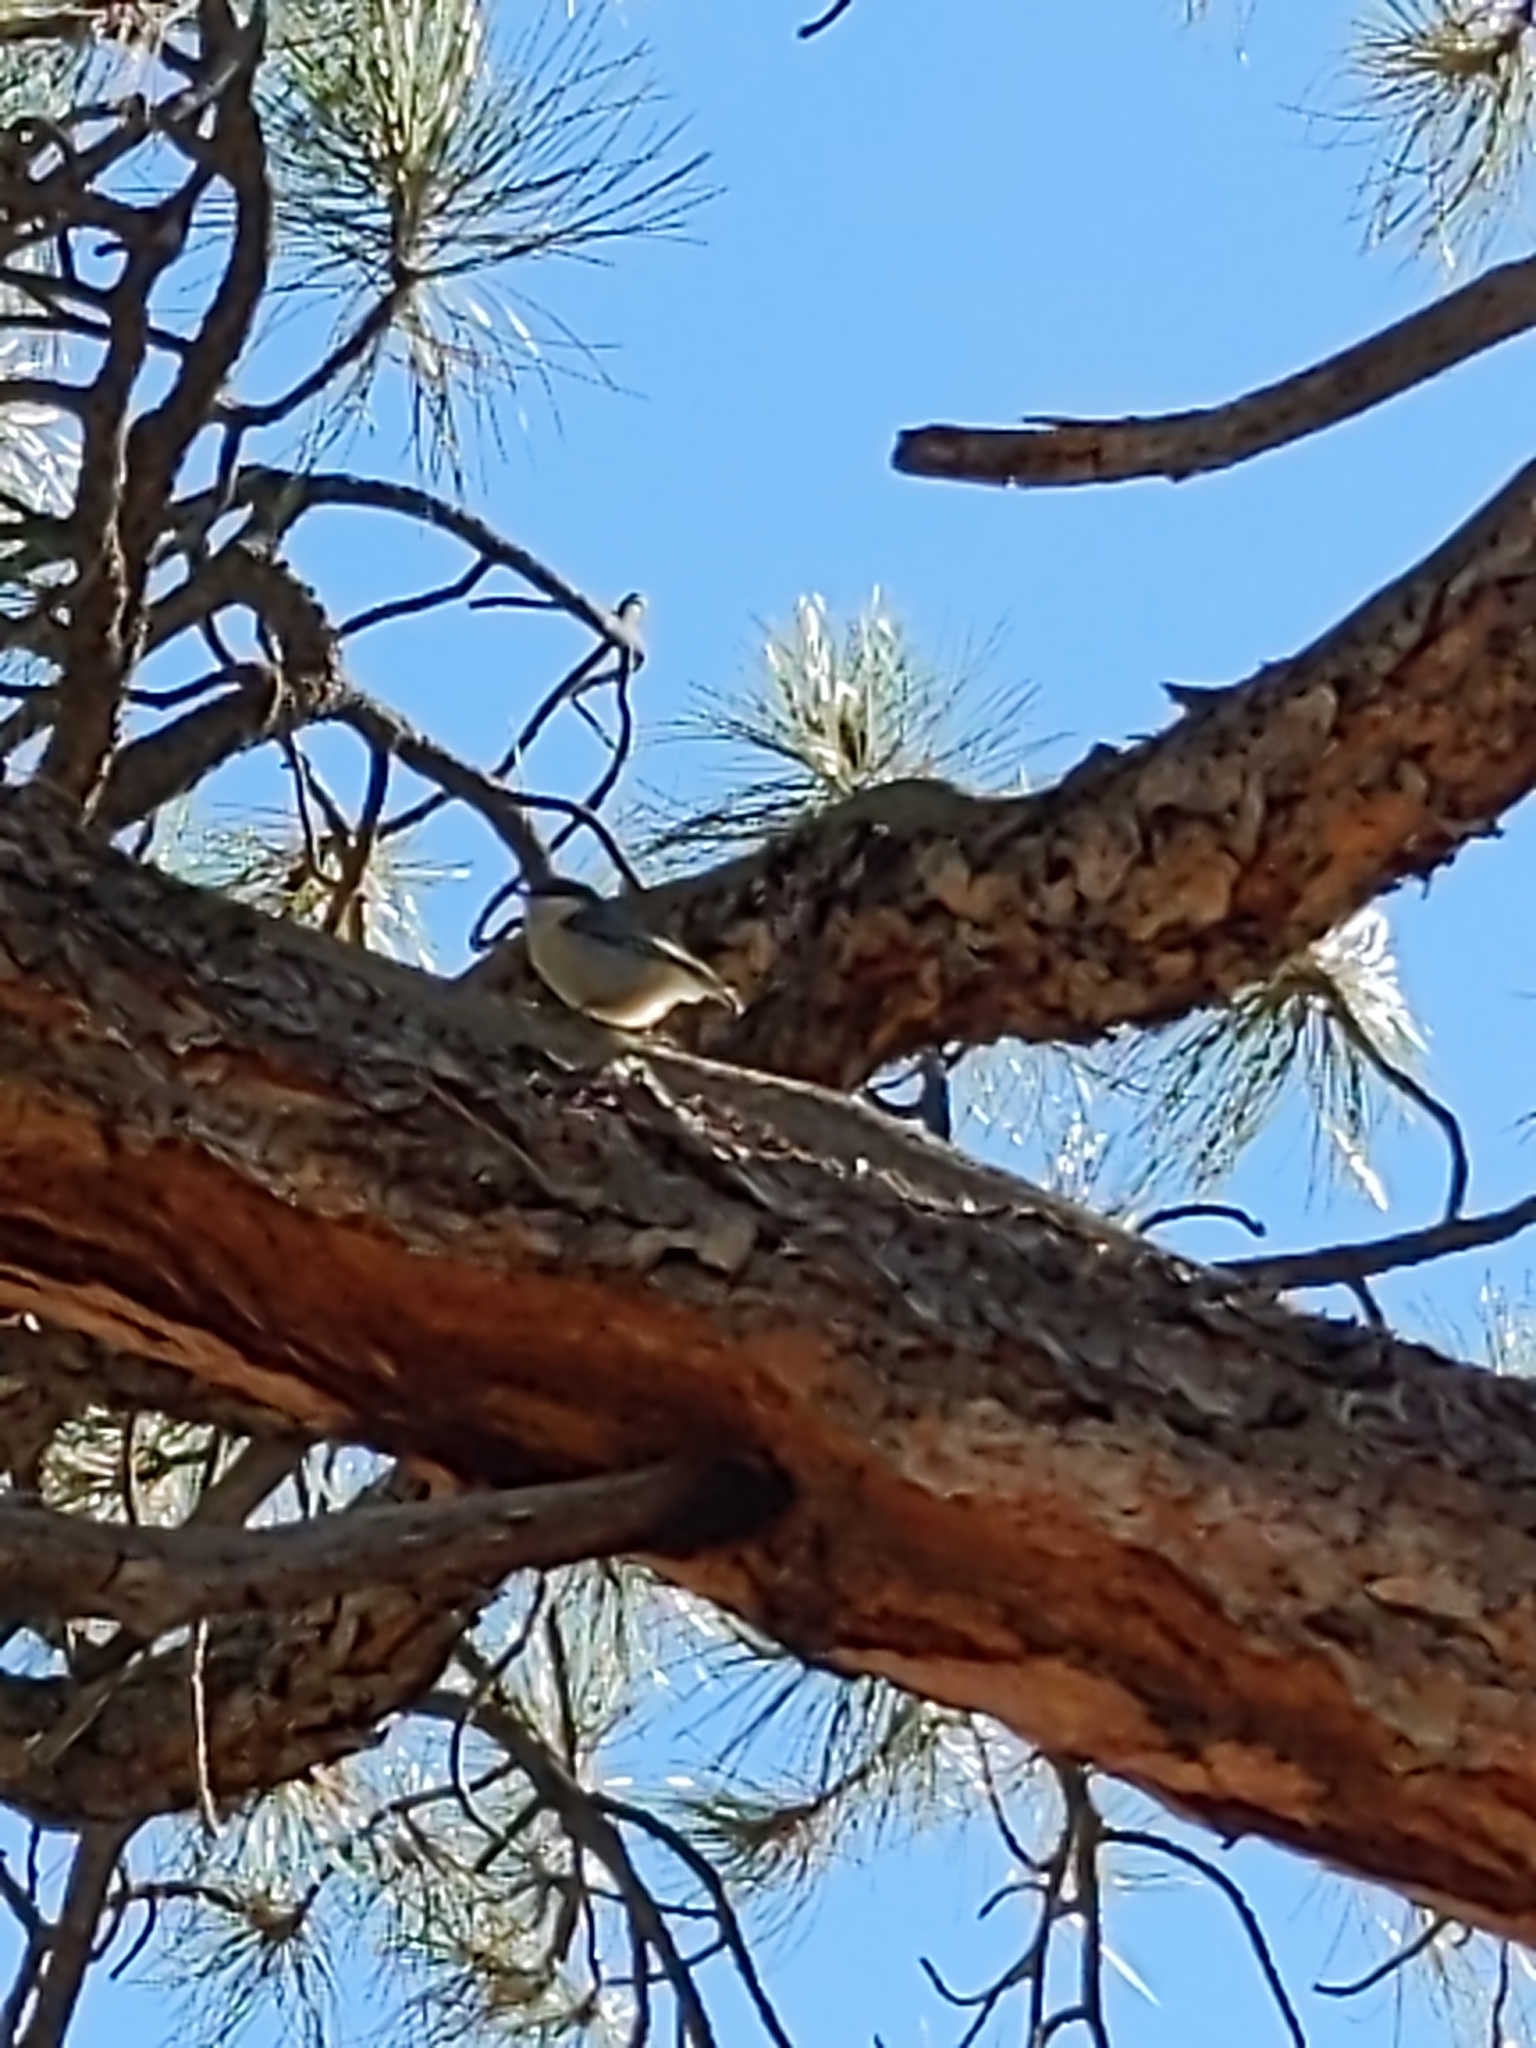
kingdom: Animalia
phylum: Chordata
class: Aves
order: Passeriformes
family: Sittidae
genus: Sitta
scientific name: Sitta pygmaea
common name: Pygmy nuthatch
